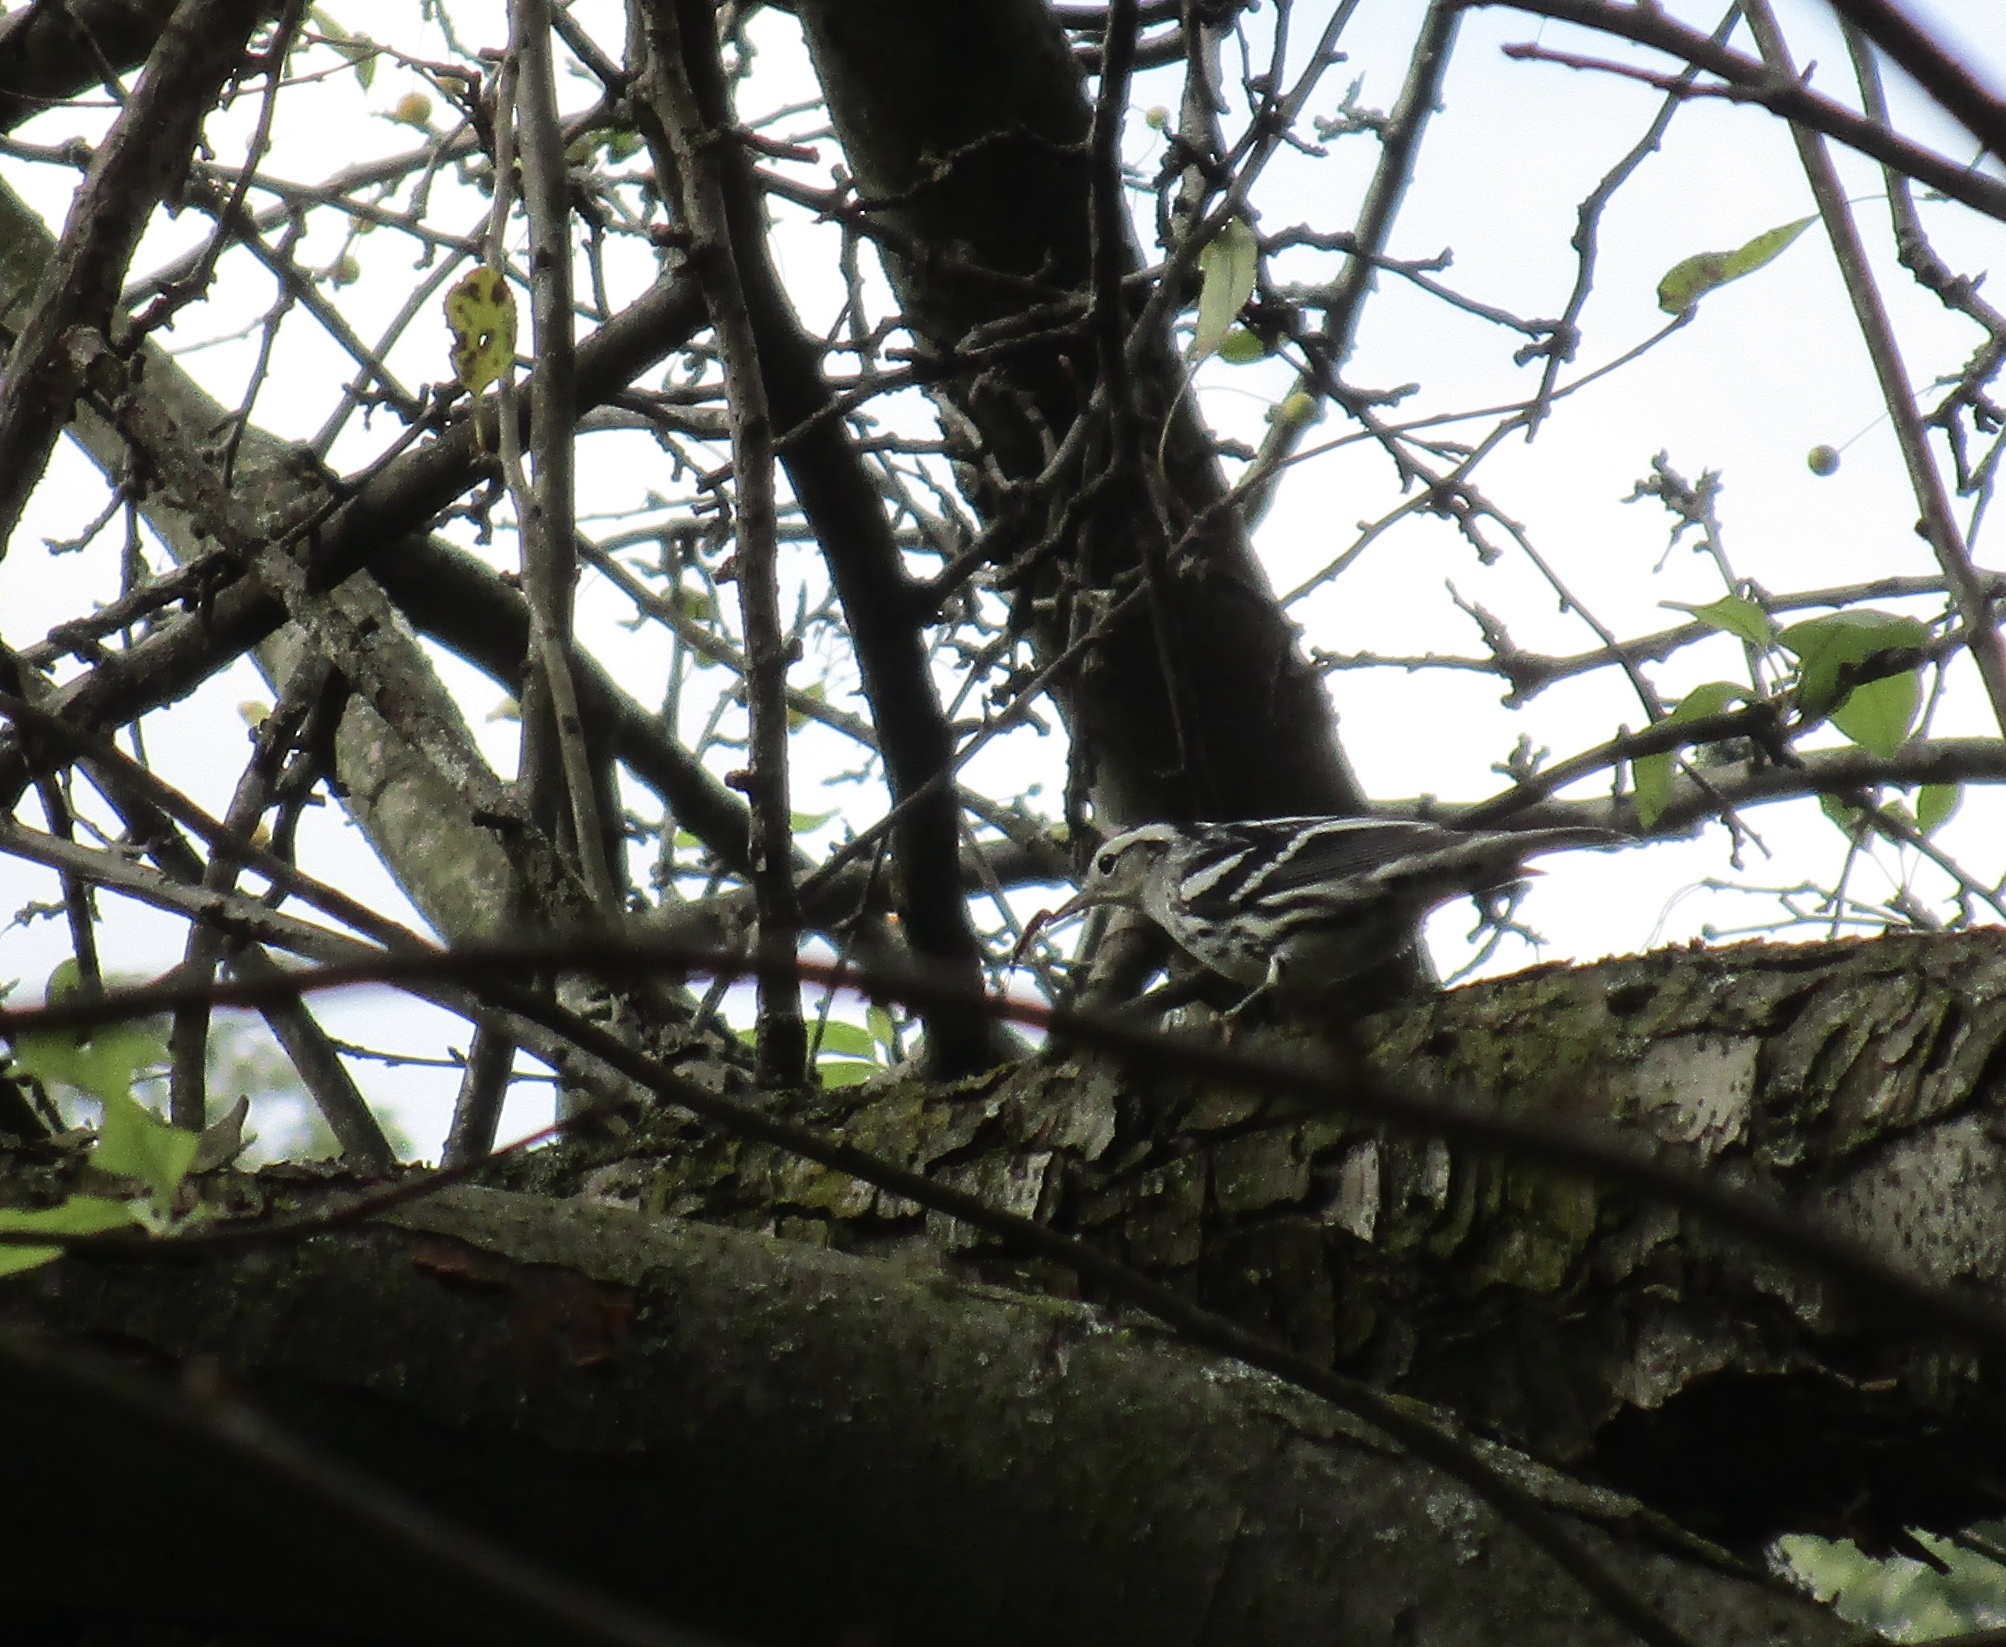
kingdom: Animalia
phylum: Chordata
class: Aves
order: Passeriformes
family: Parulidae
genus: Mniotilta
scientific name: Mniotilta varia
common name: Black-and-white warbler
